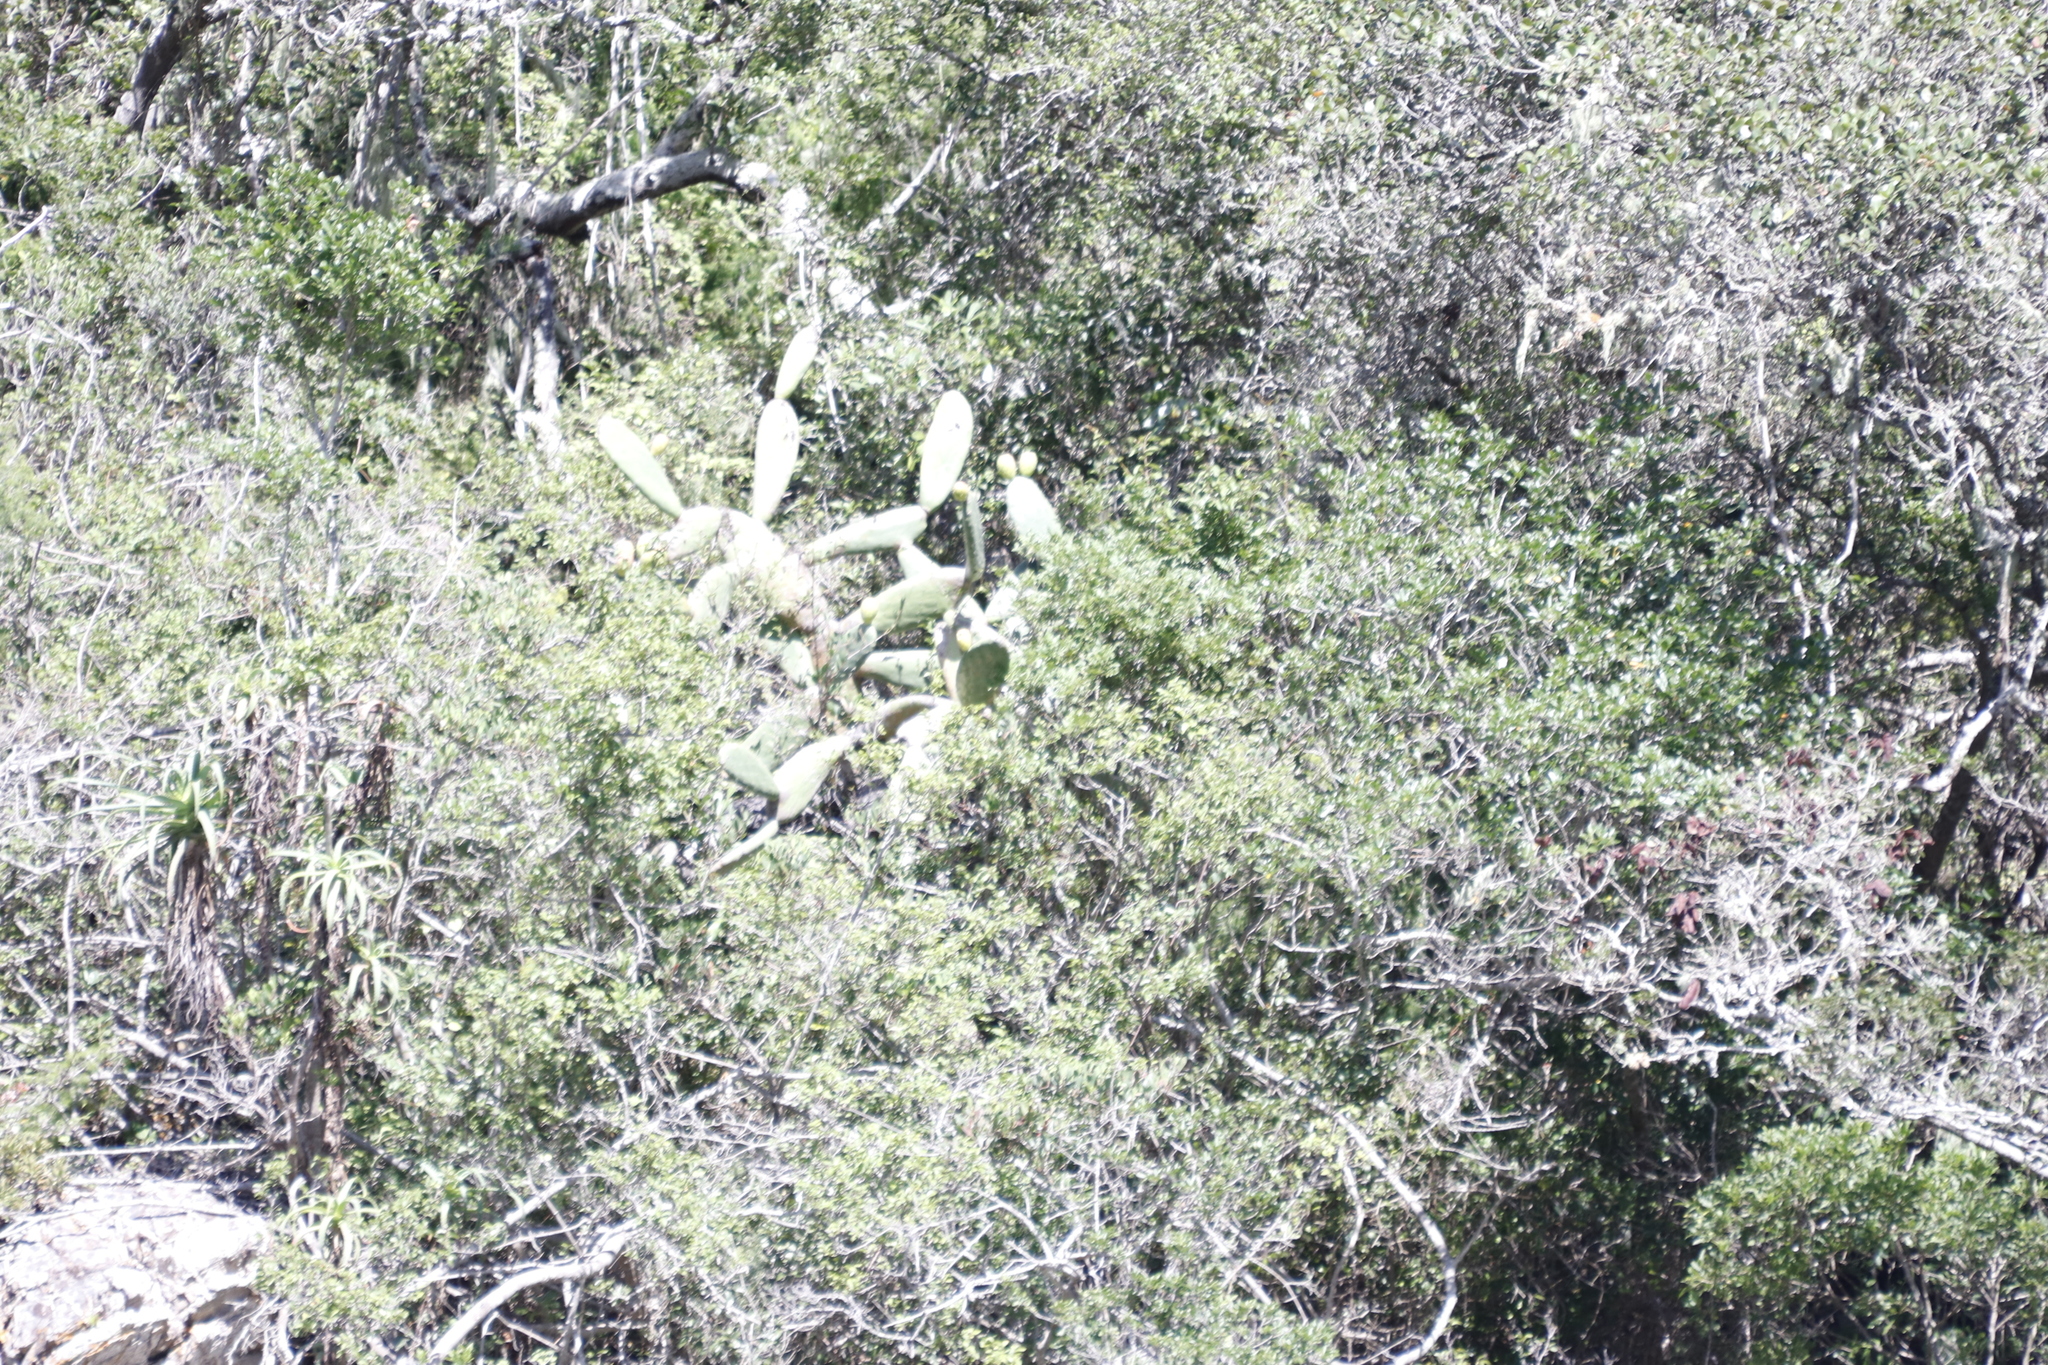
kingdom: Plantae
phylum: Tracheophyta
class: Magnoliopsida
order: Caryophyllales
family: Cactaceae
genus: Opuntia
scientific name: Opuntia ficus-indica
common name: Barbary fig
